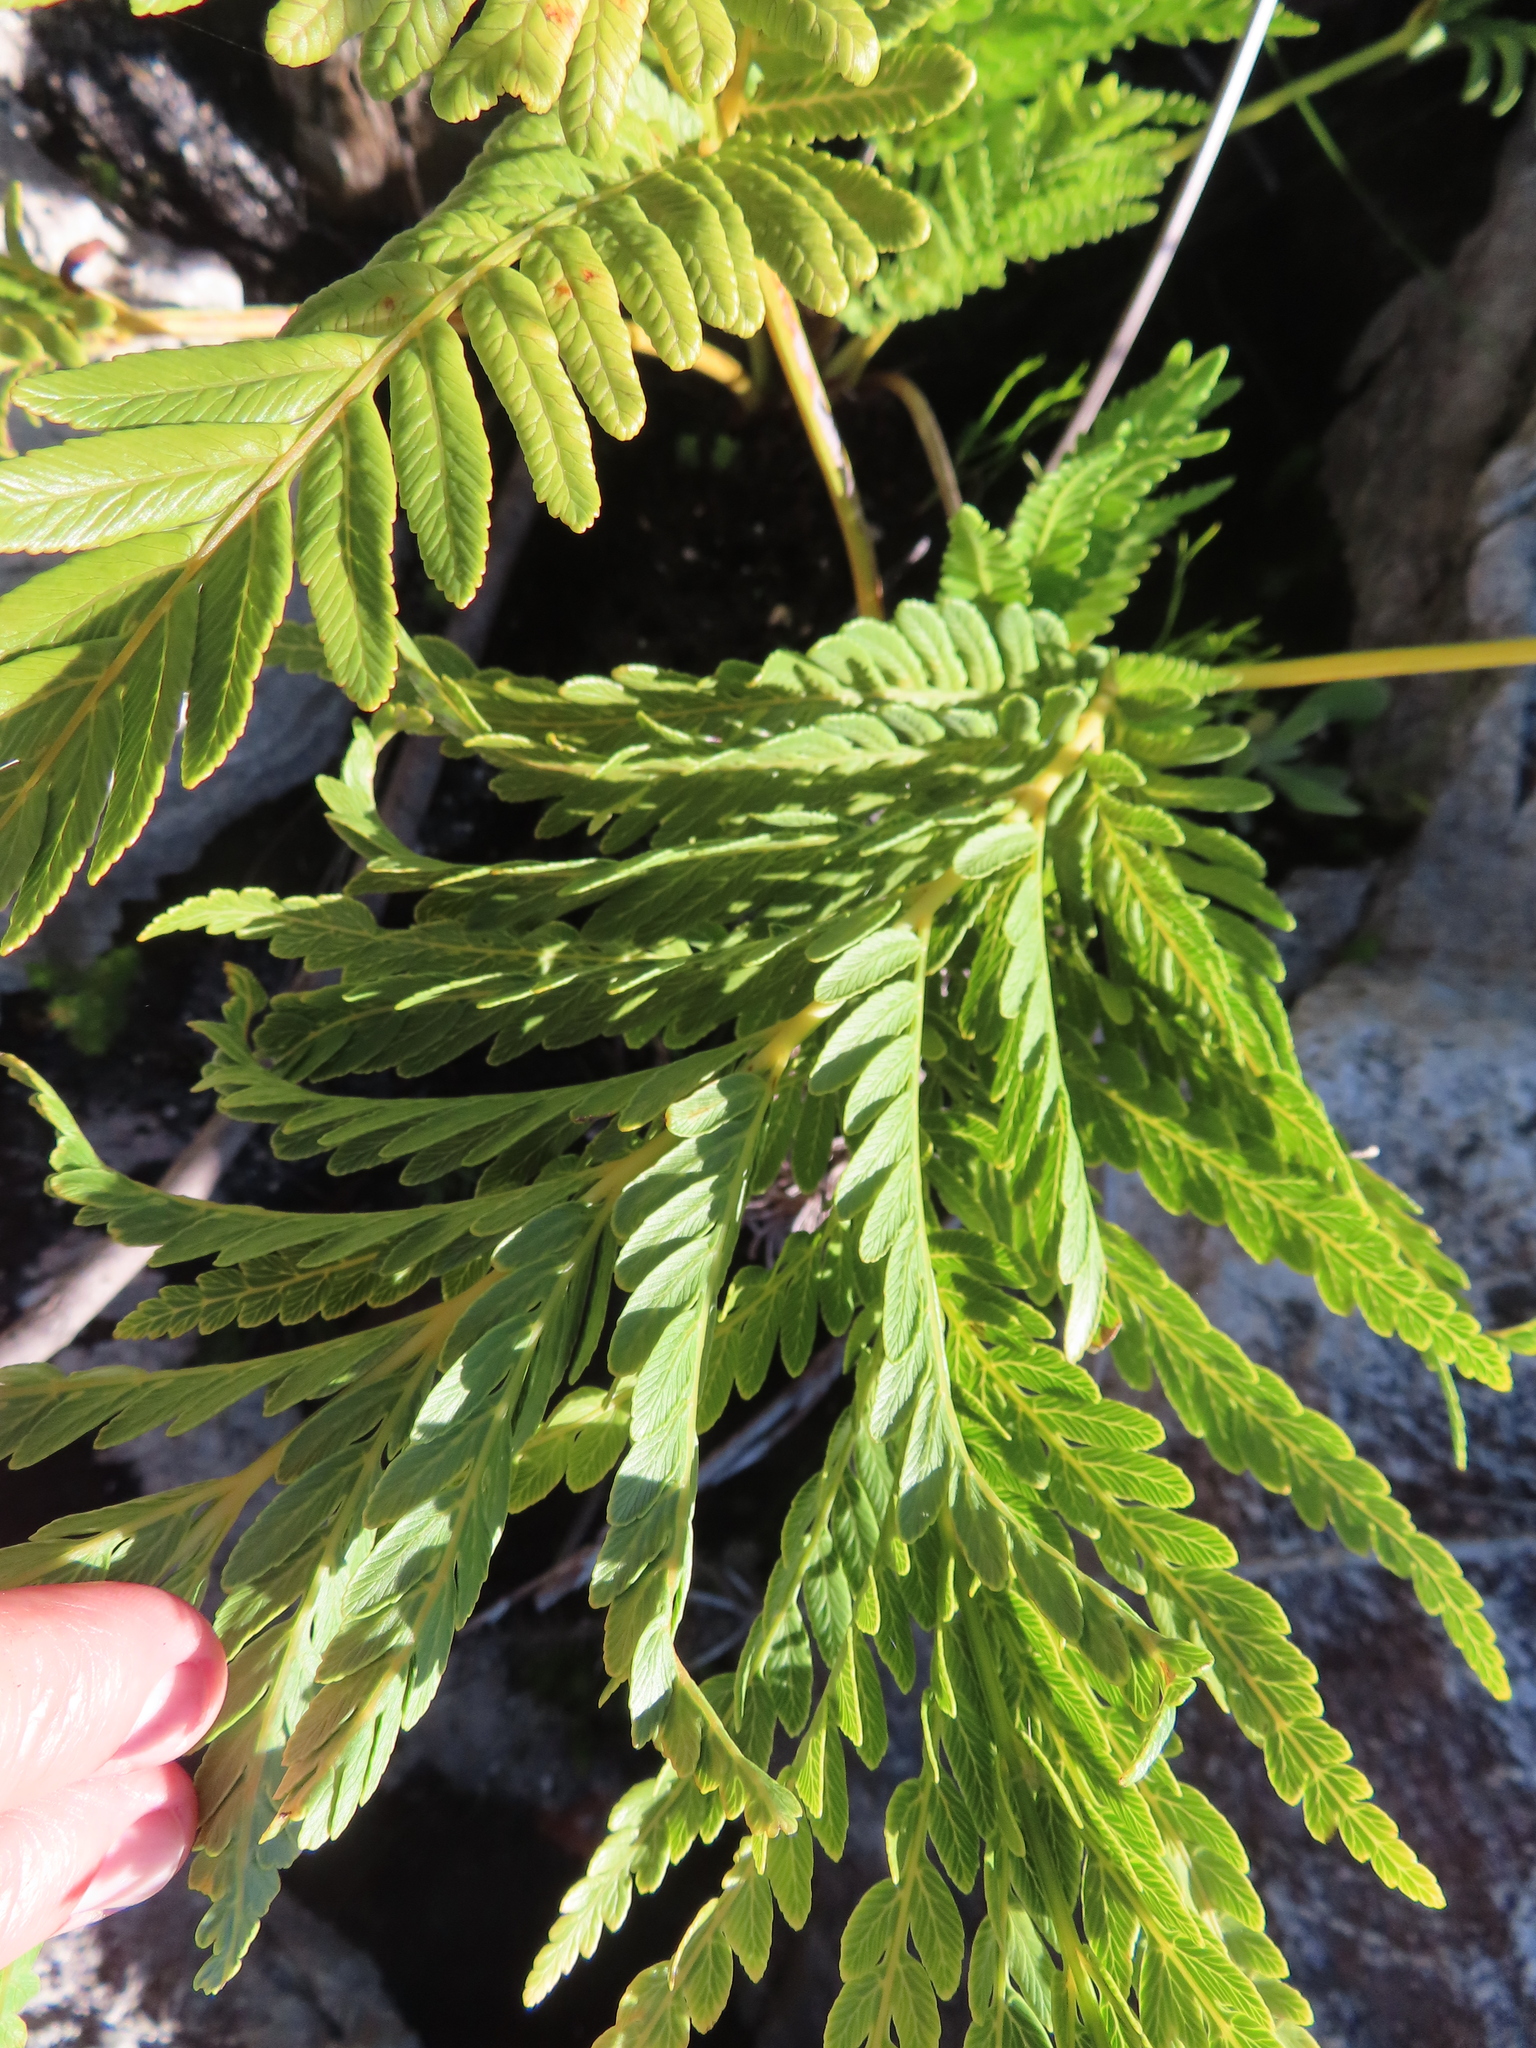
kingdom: Plantae
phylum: Tracheophyta
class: Polypodiopsida
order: Osmundales
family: Osmundaceae
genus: Todea
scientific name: Todea barbara
